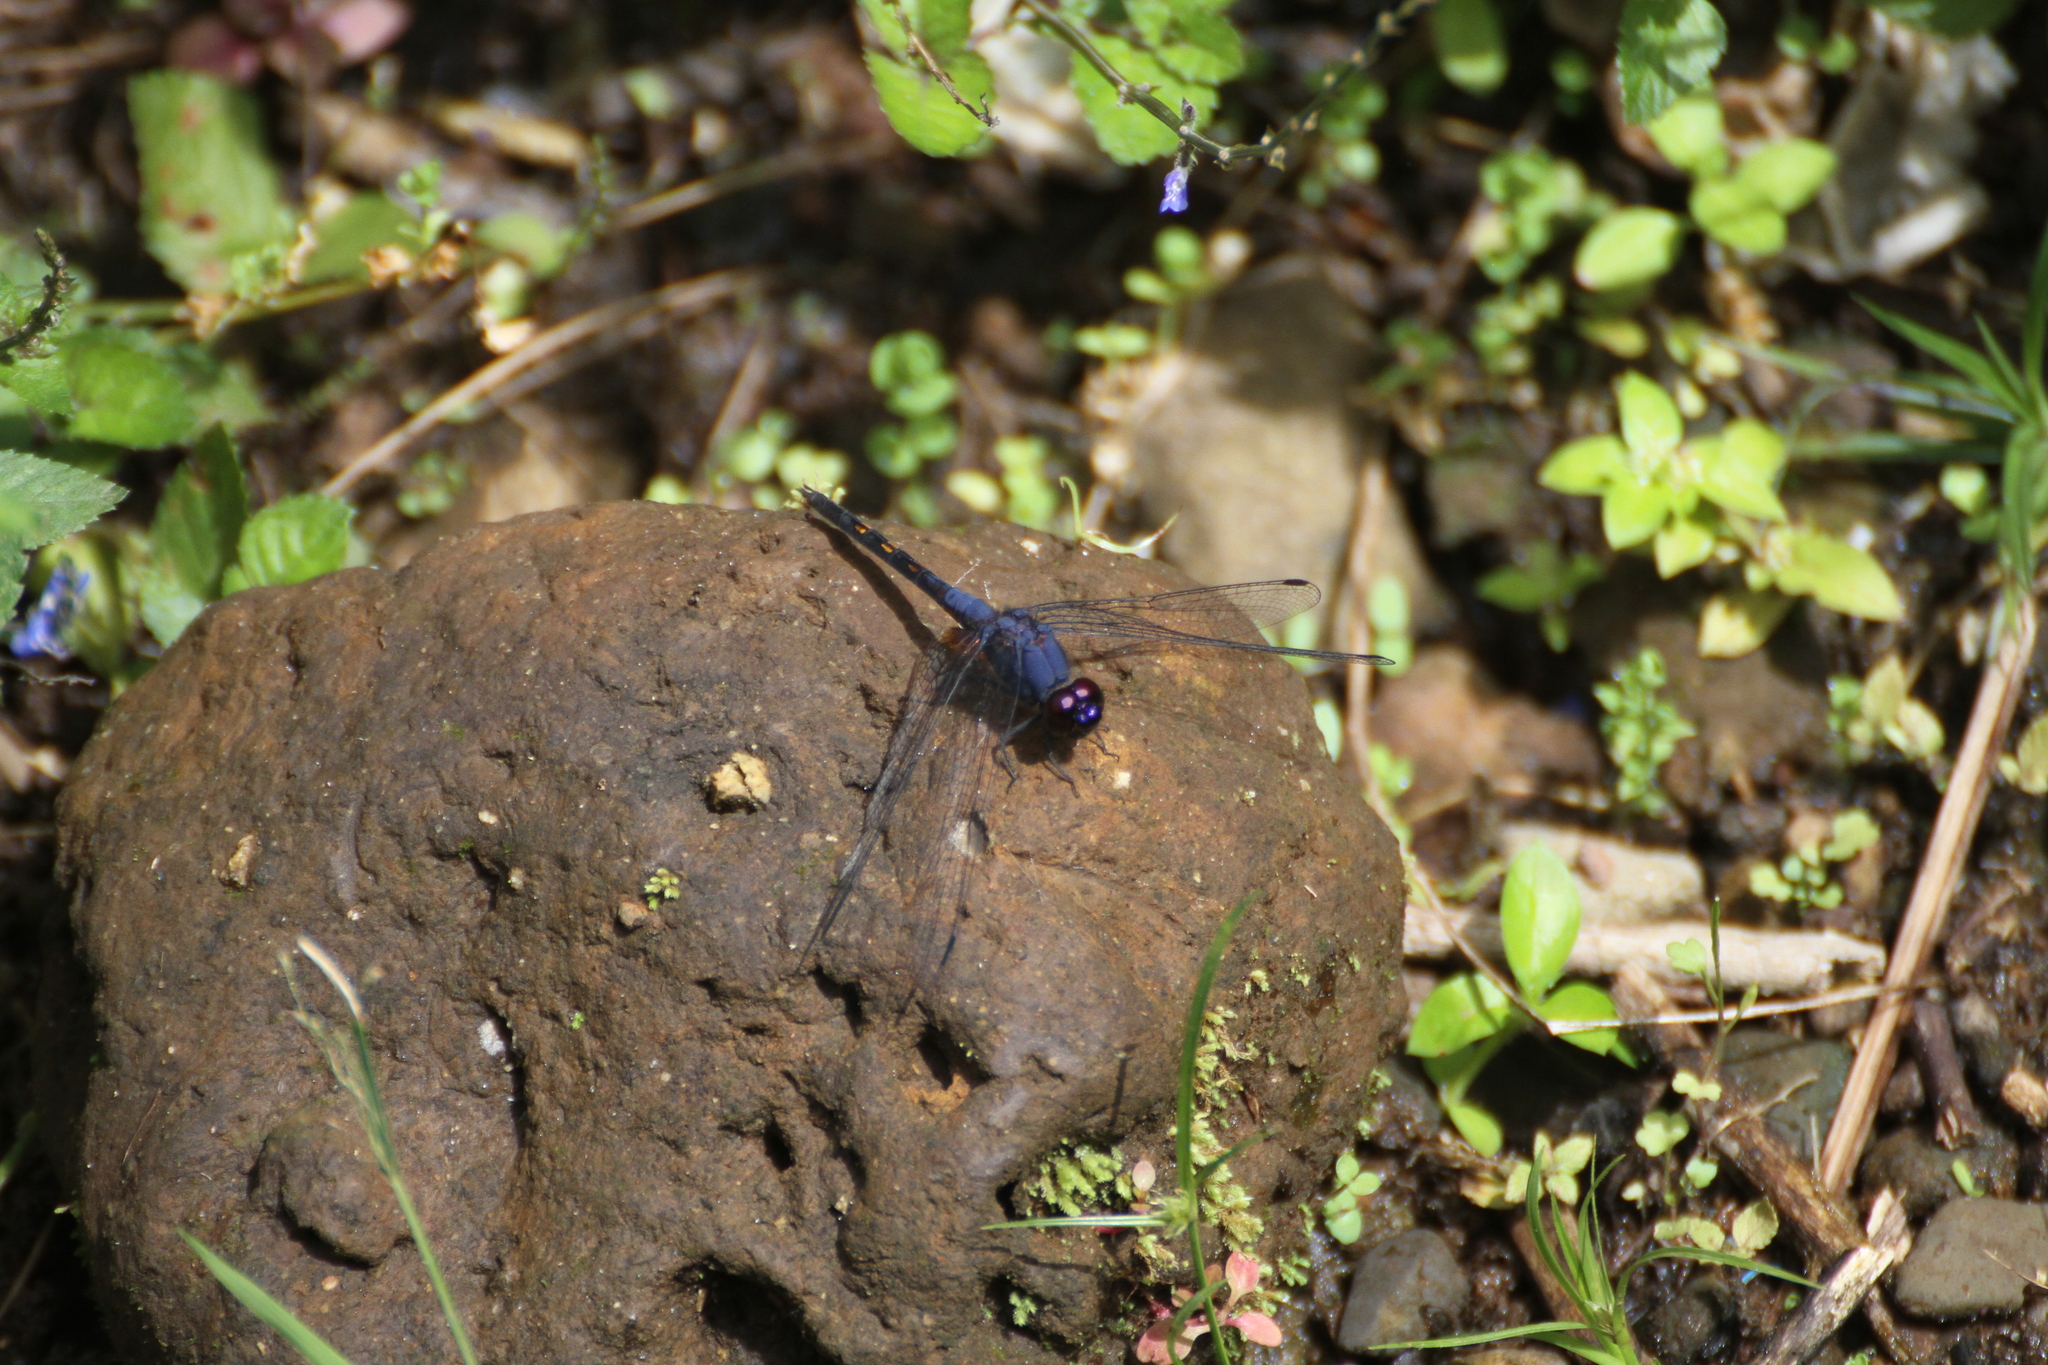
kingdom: Animalia
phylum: Arthropoda
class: Insecta
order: Odonata
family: Libellulidae
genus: Trithemis
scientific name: Trithemis festiva
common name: Indigo dropwing
